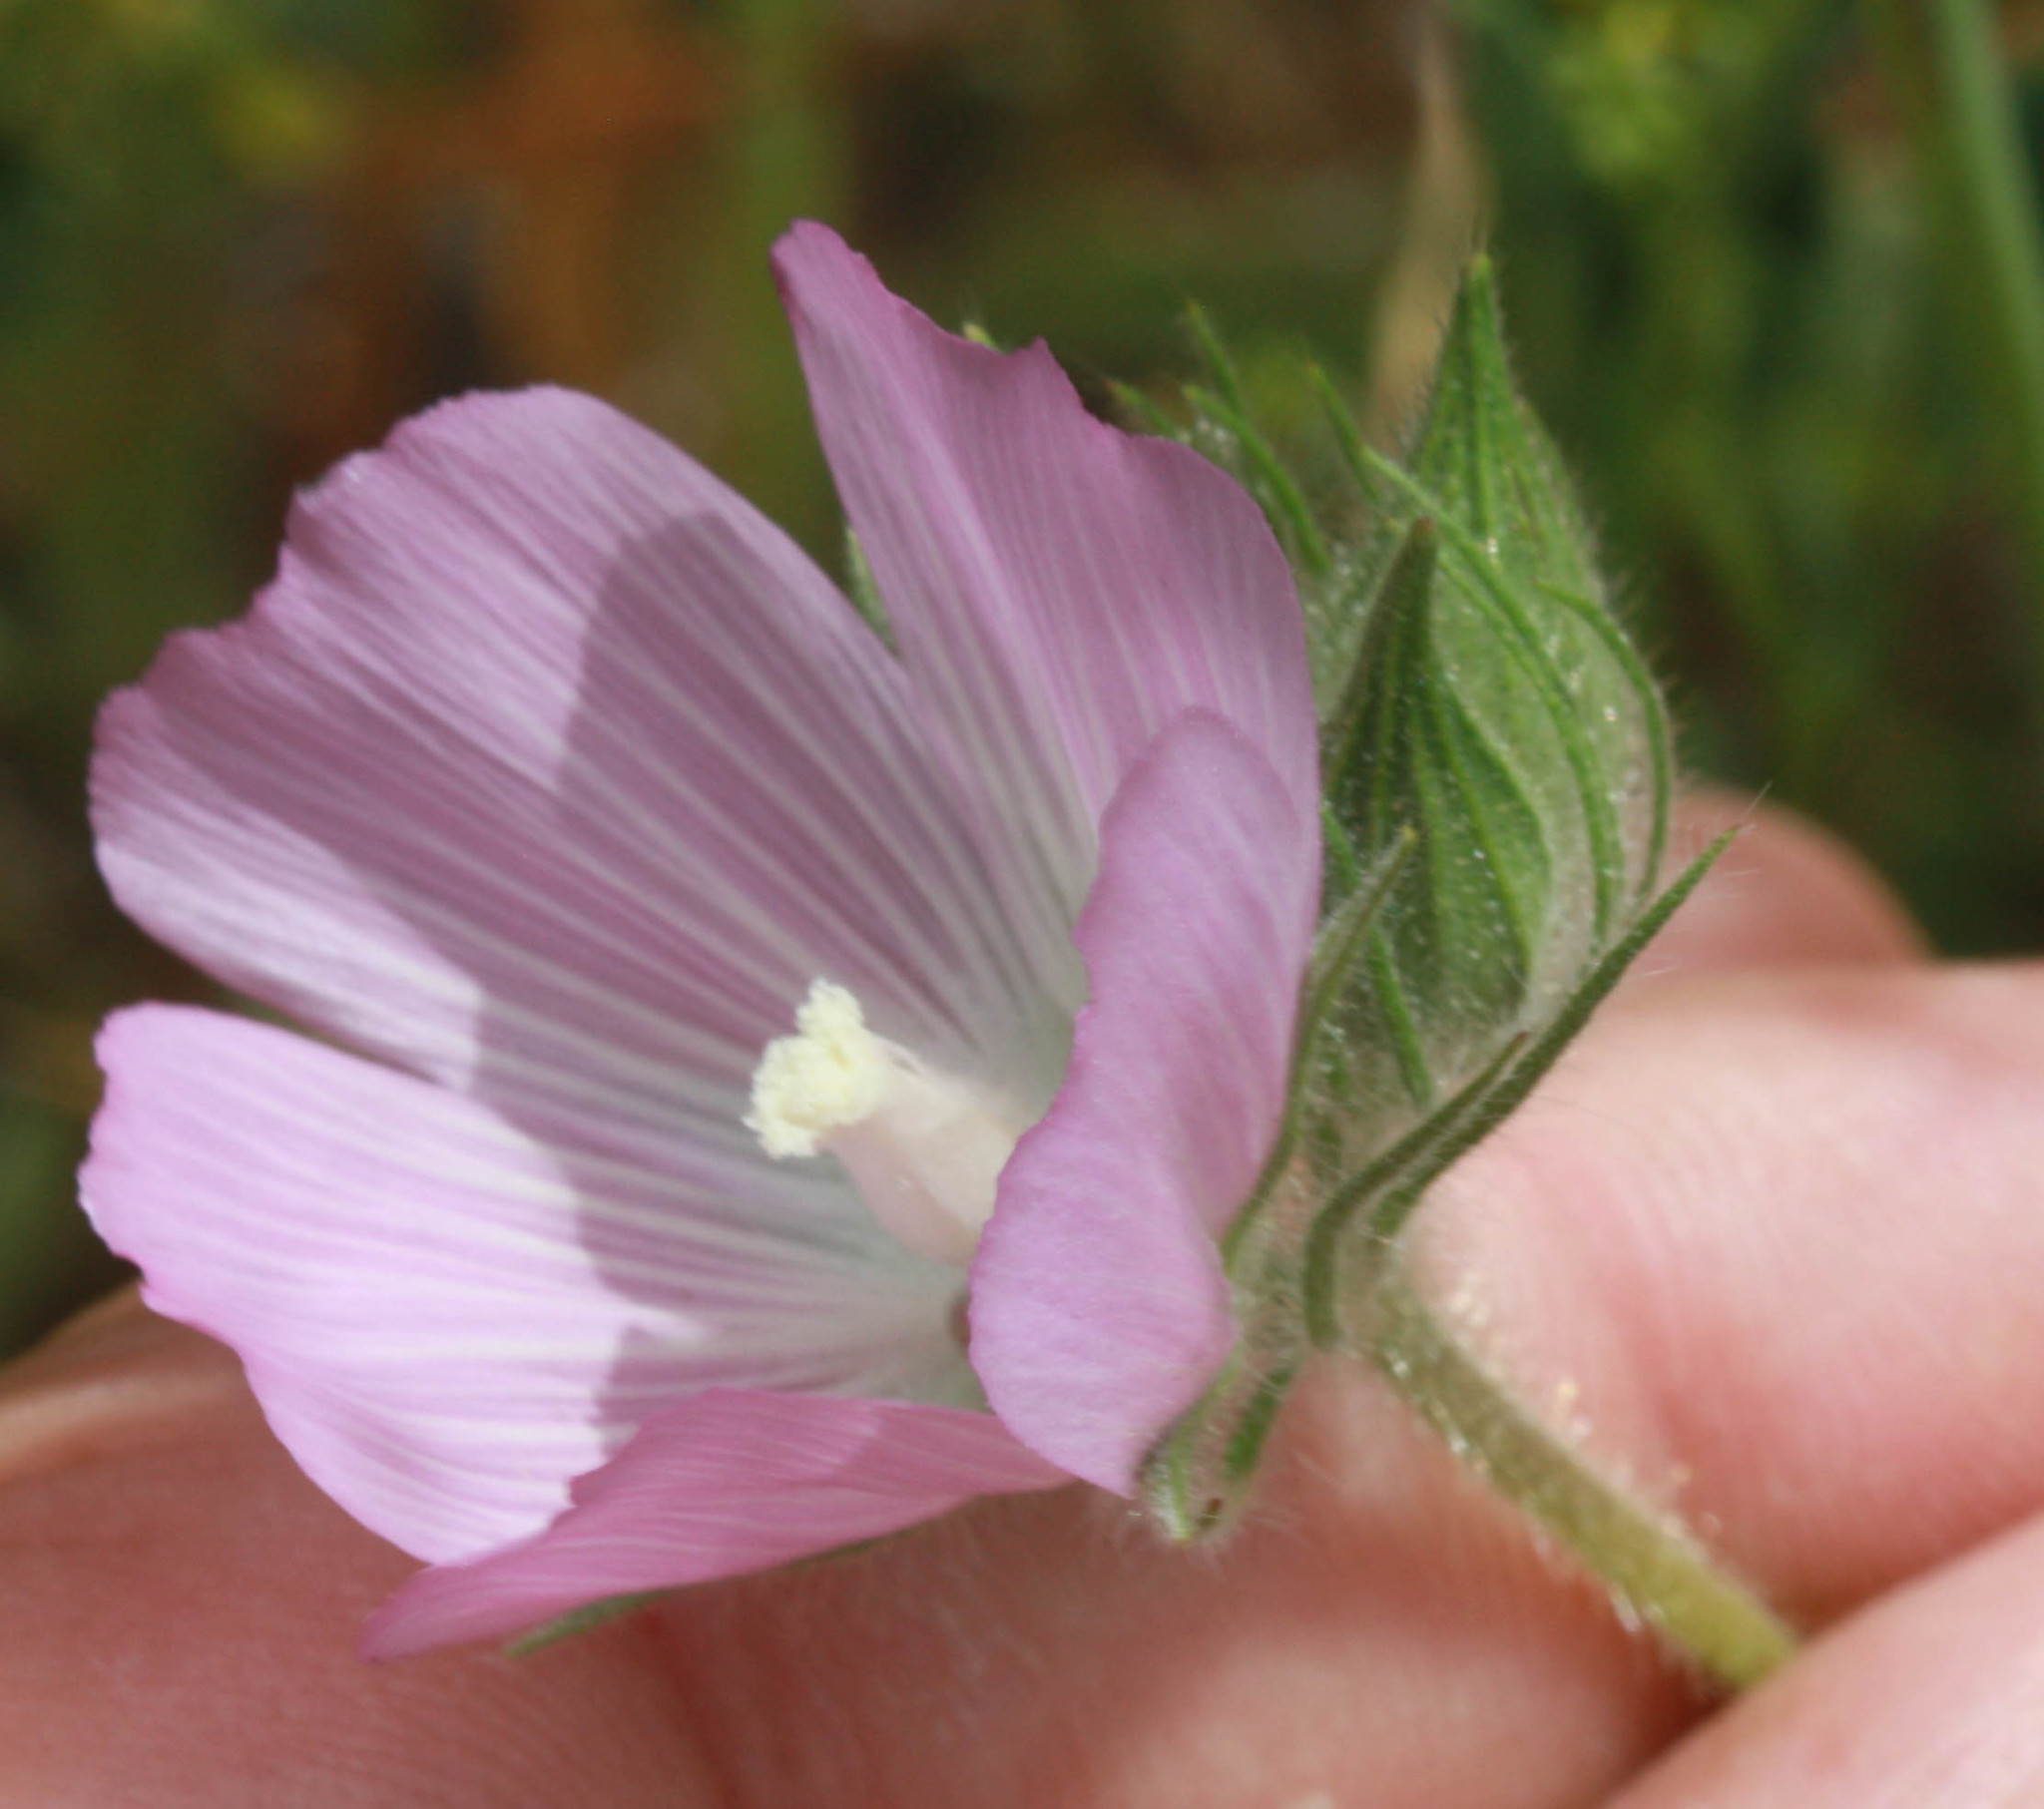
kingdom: Plantae
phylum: Tracheophyta
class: Magnoliopsida
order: Malvales
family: Malvaceae
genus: Sidalcea
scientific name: Sidalcea diploscypha
